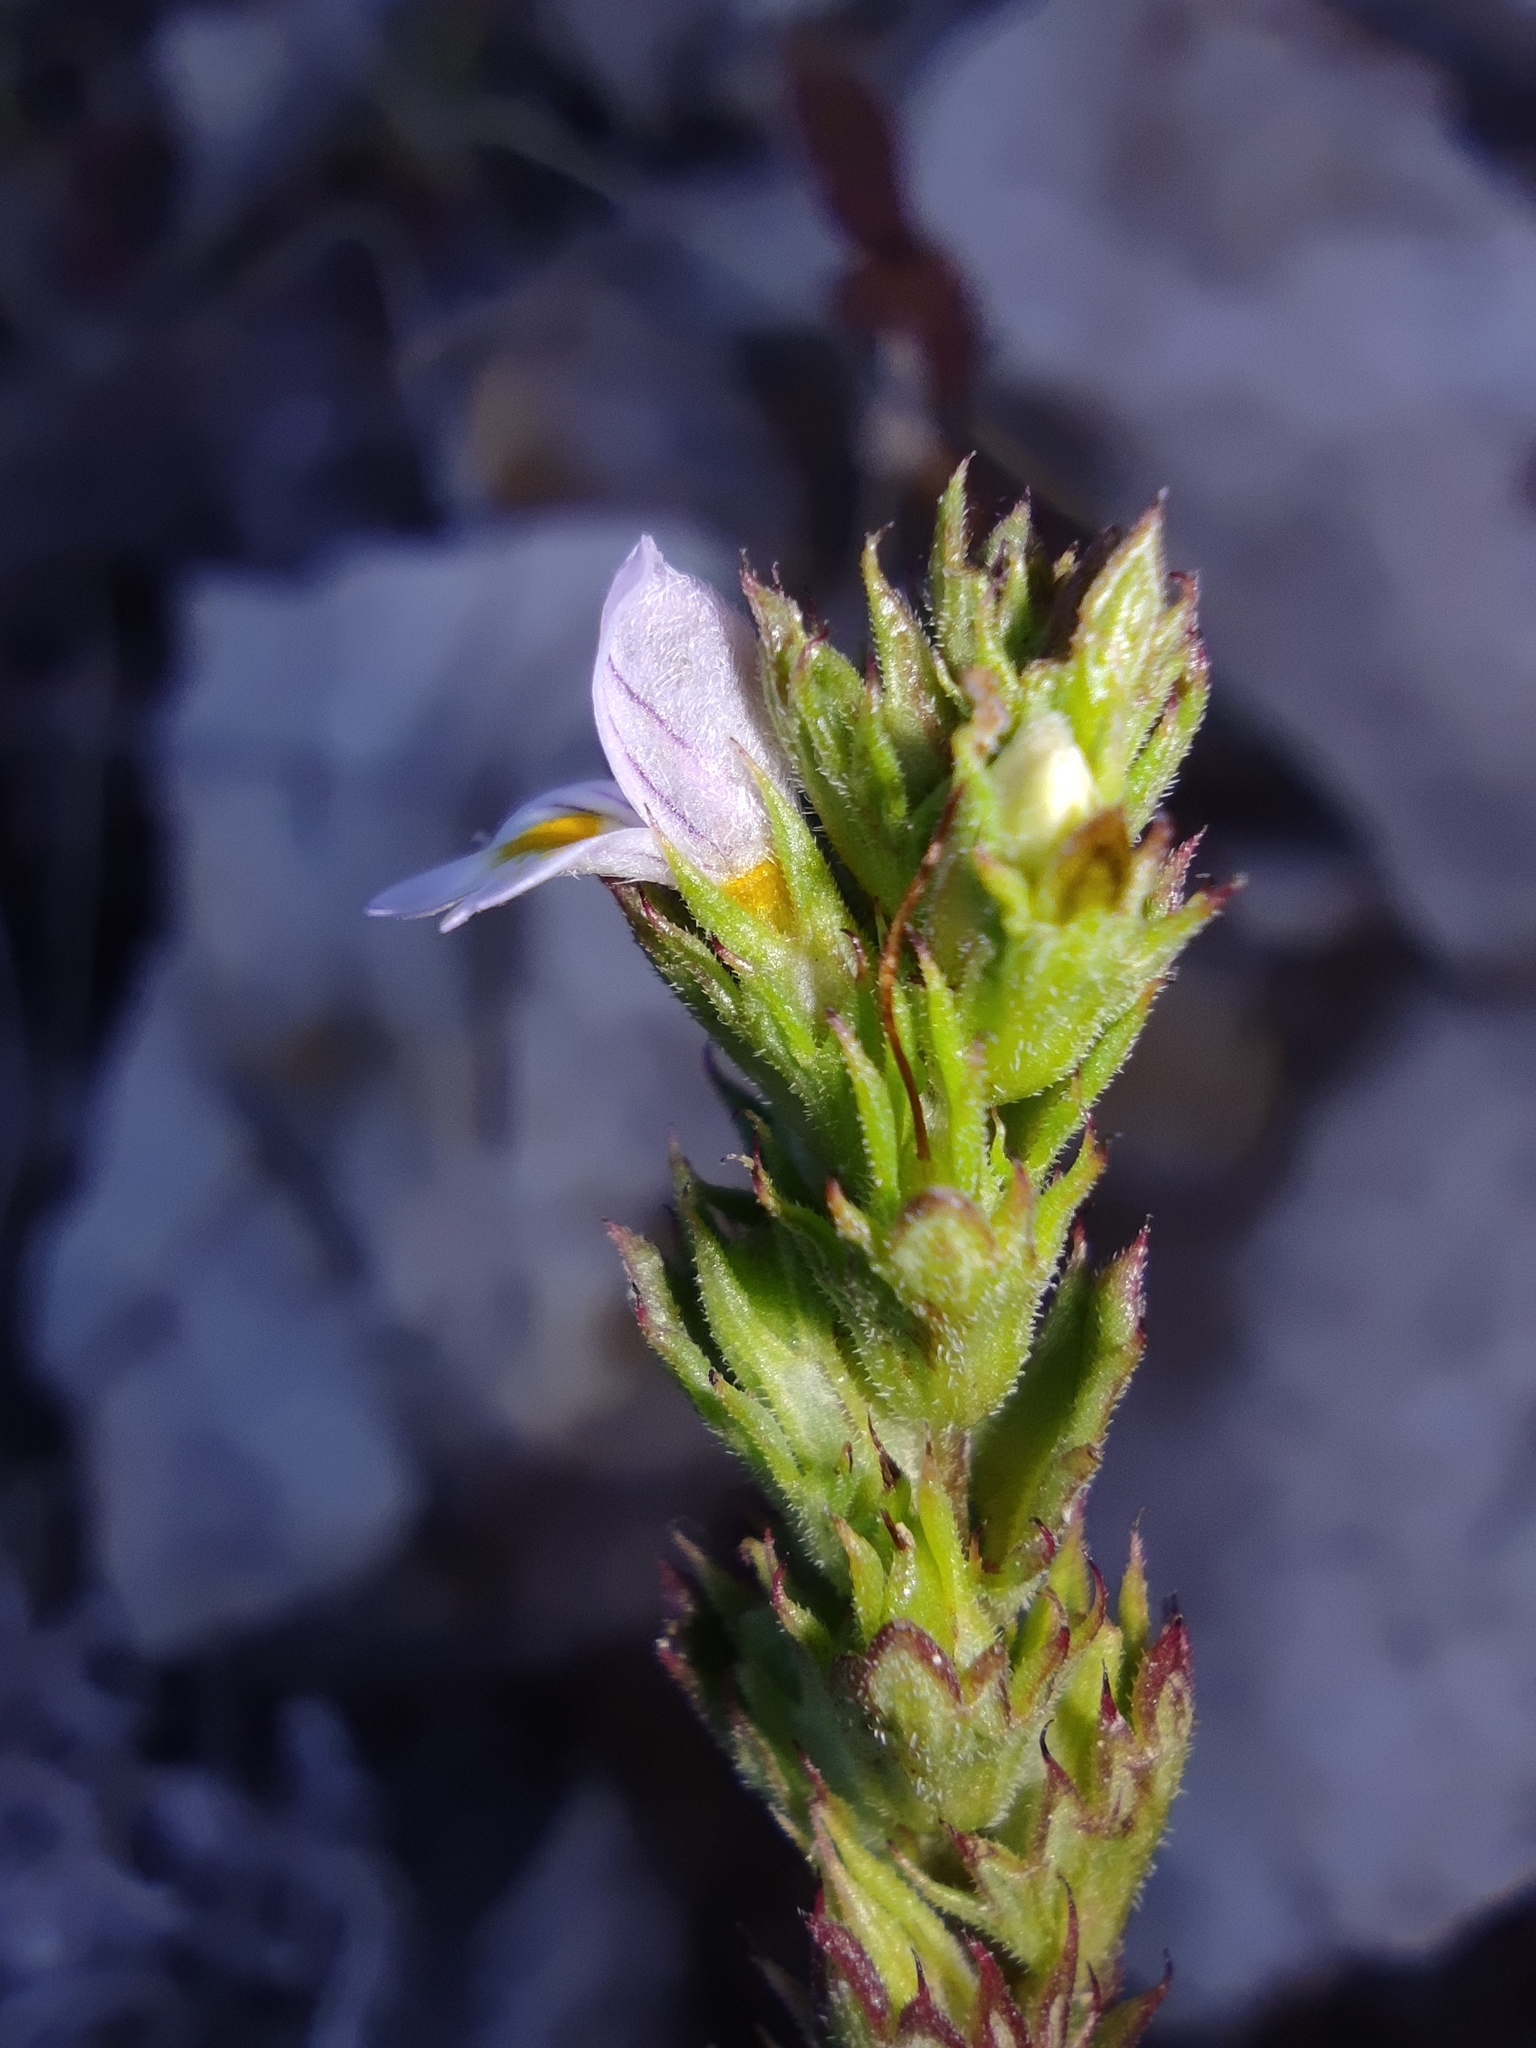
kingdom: Plantae
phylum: Tracheophyta
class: Magnoliopsida
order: Lamiales
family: Orobanchaceae
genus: Euphrasia
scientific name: Euphrasia stricta
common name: Drug eyebright
